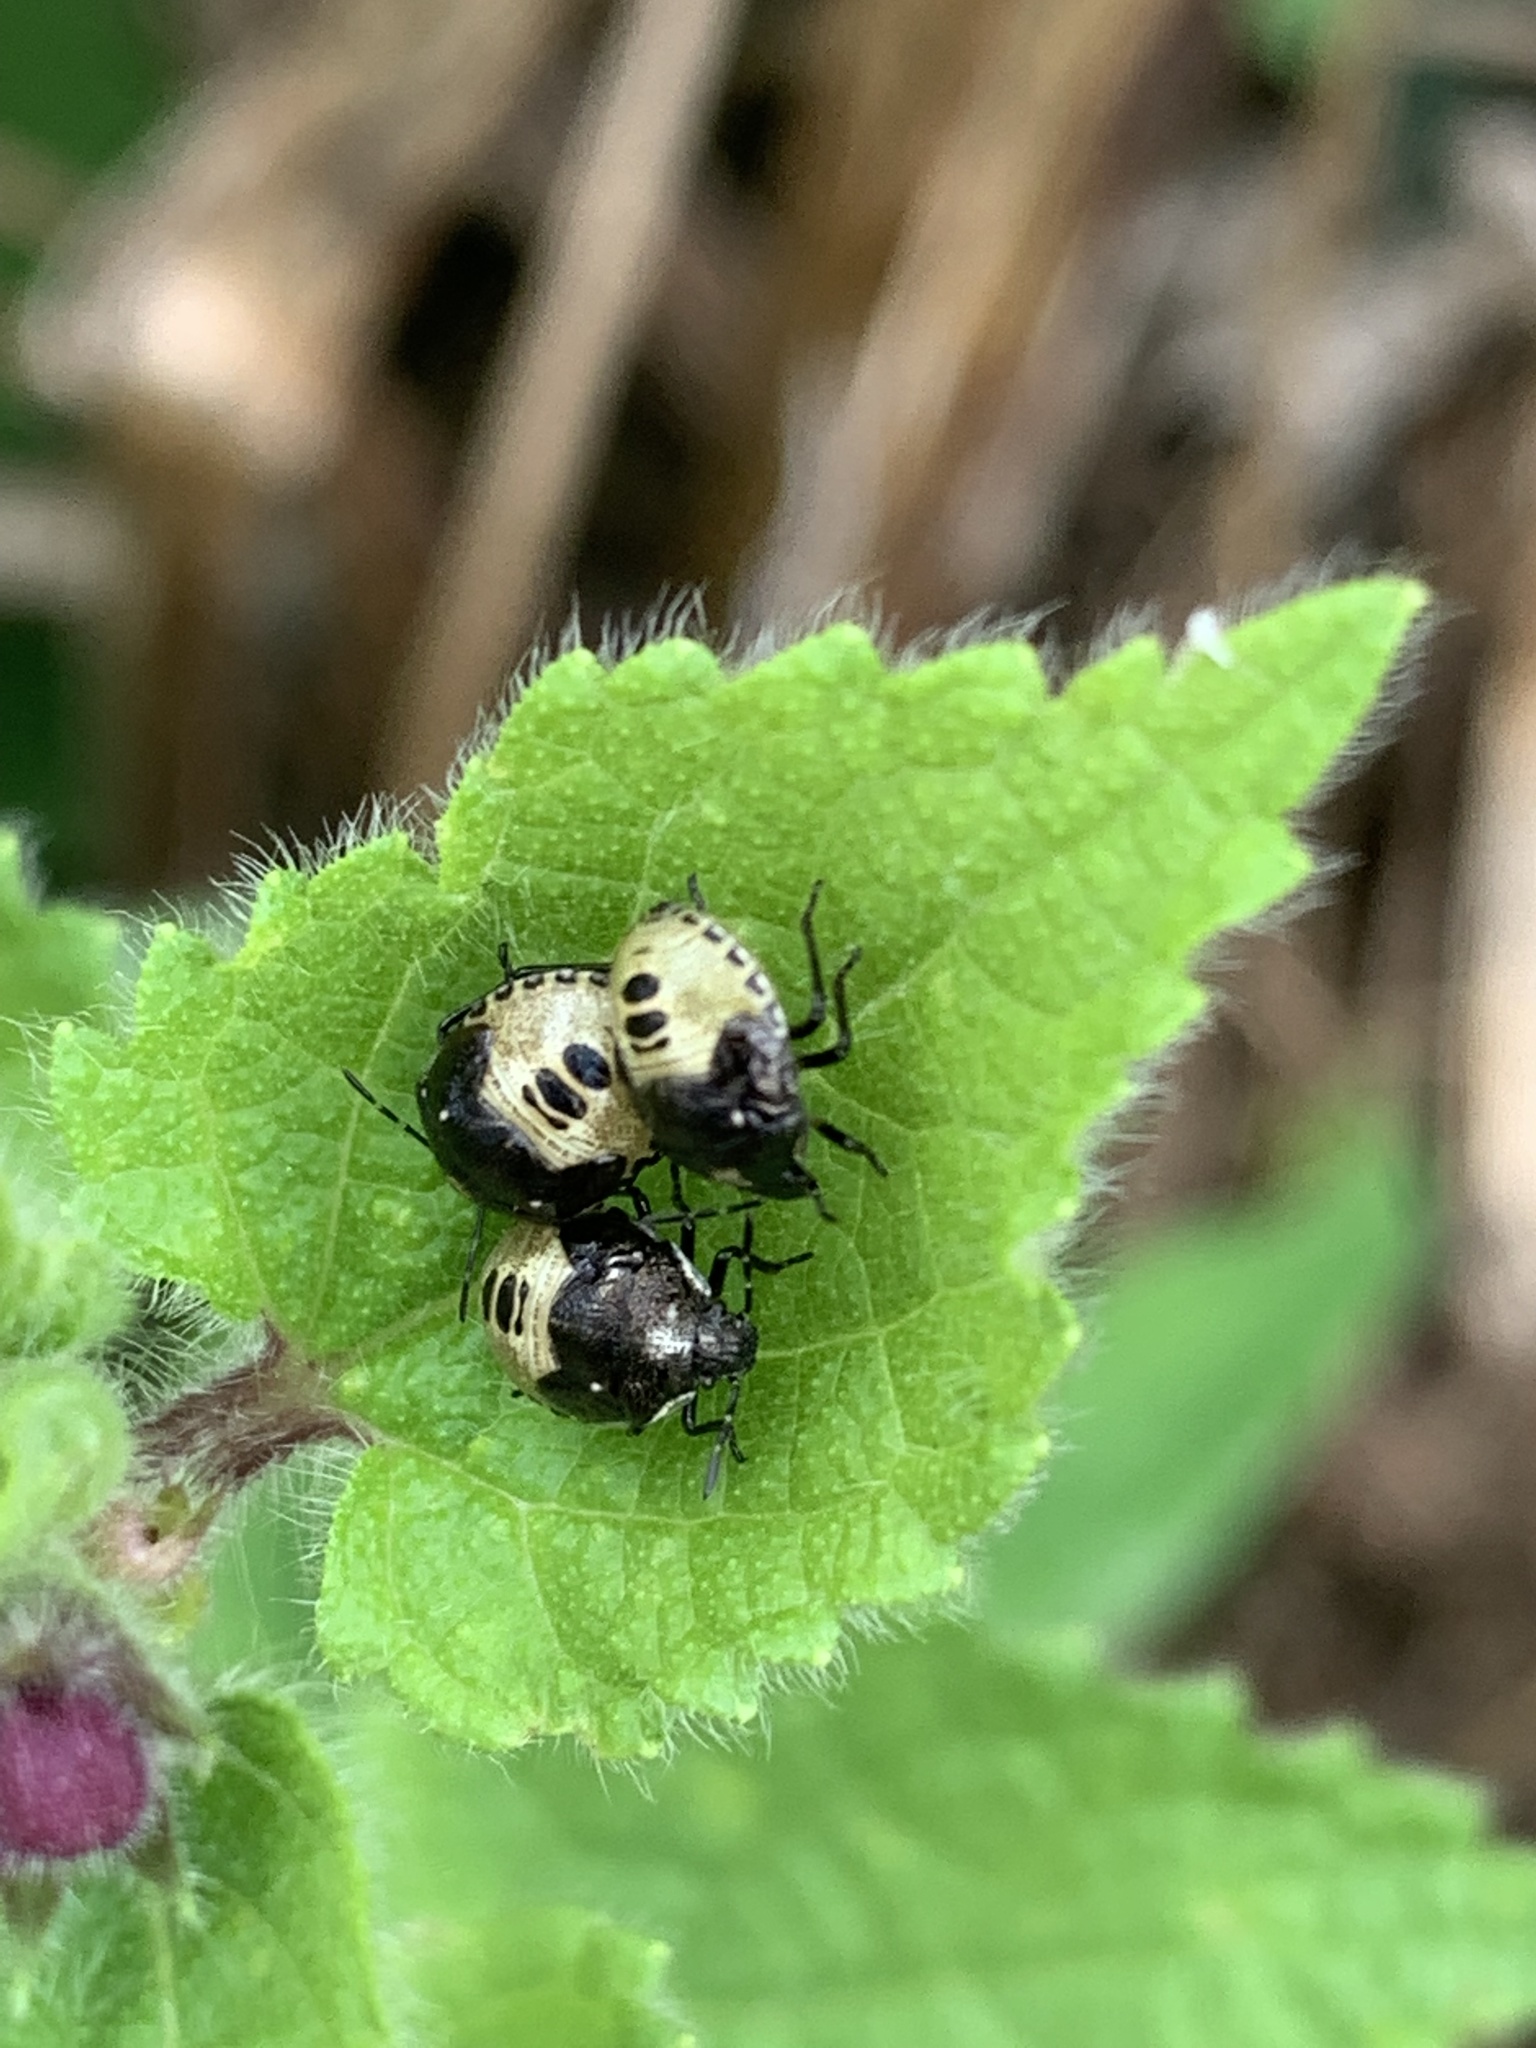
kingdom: Animalia
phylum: Arthropoda
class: Insecta
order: Hemiptera
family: Pentatomidae
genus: Eysarcoris
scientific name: Eysarcoris venustissimus
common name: Woundwort shieldbug
